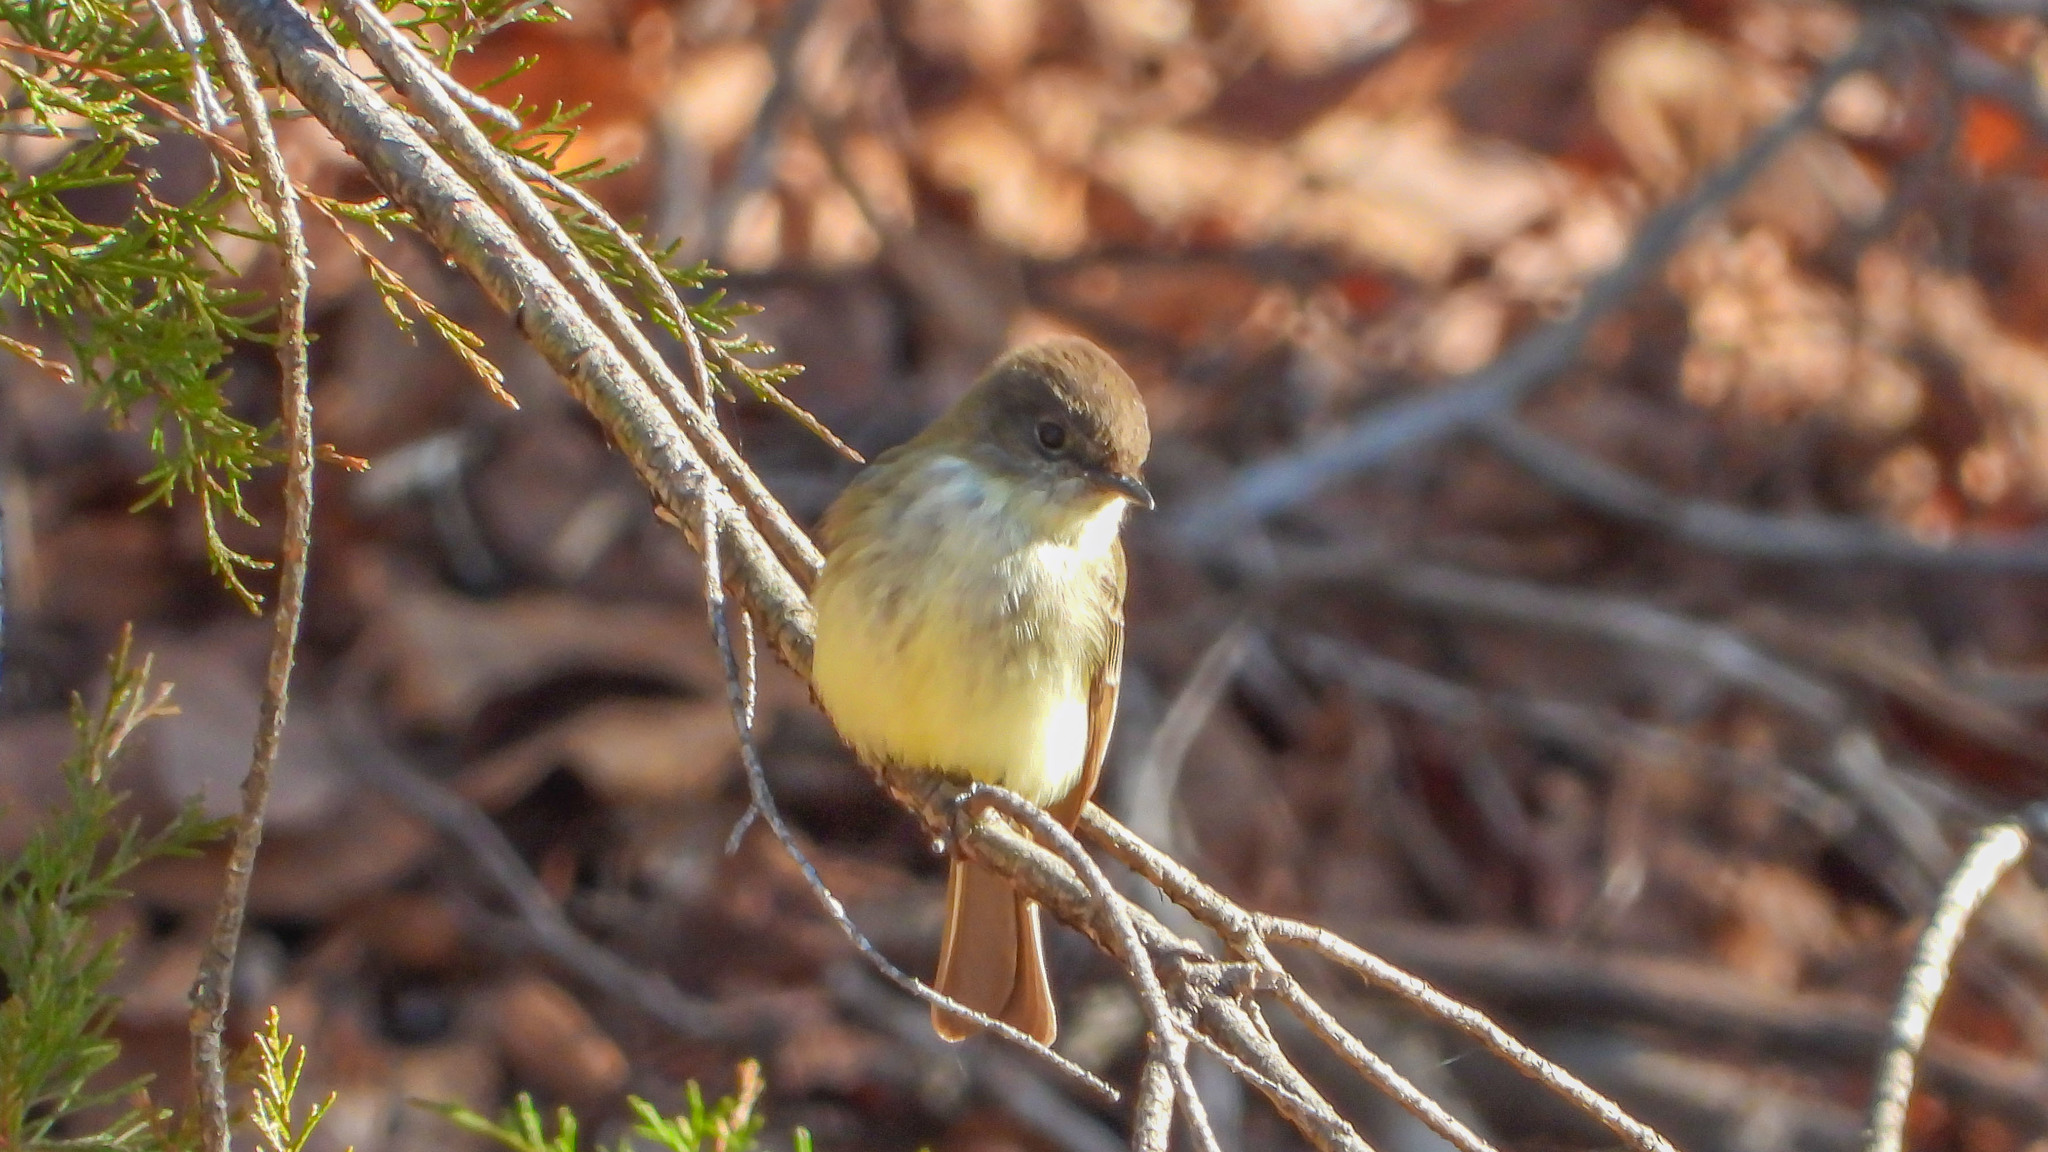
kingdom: Animalia
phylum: Chordata
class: Aves
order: Passeriformes
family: Tyrannidae
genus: Sayornis
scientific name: Sayornis phoebe
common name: Eastern phoebe
